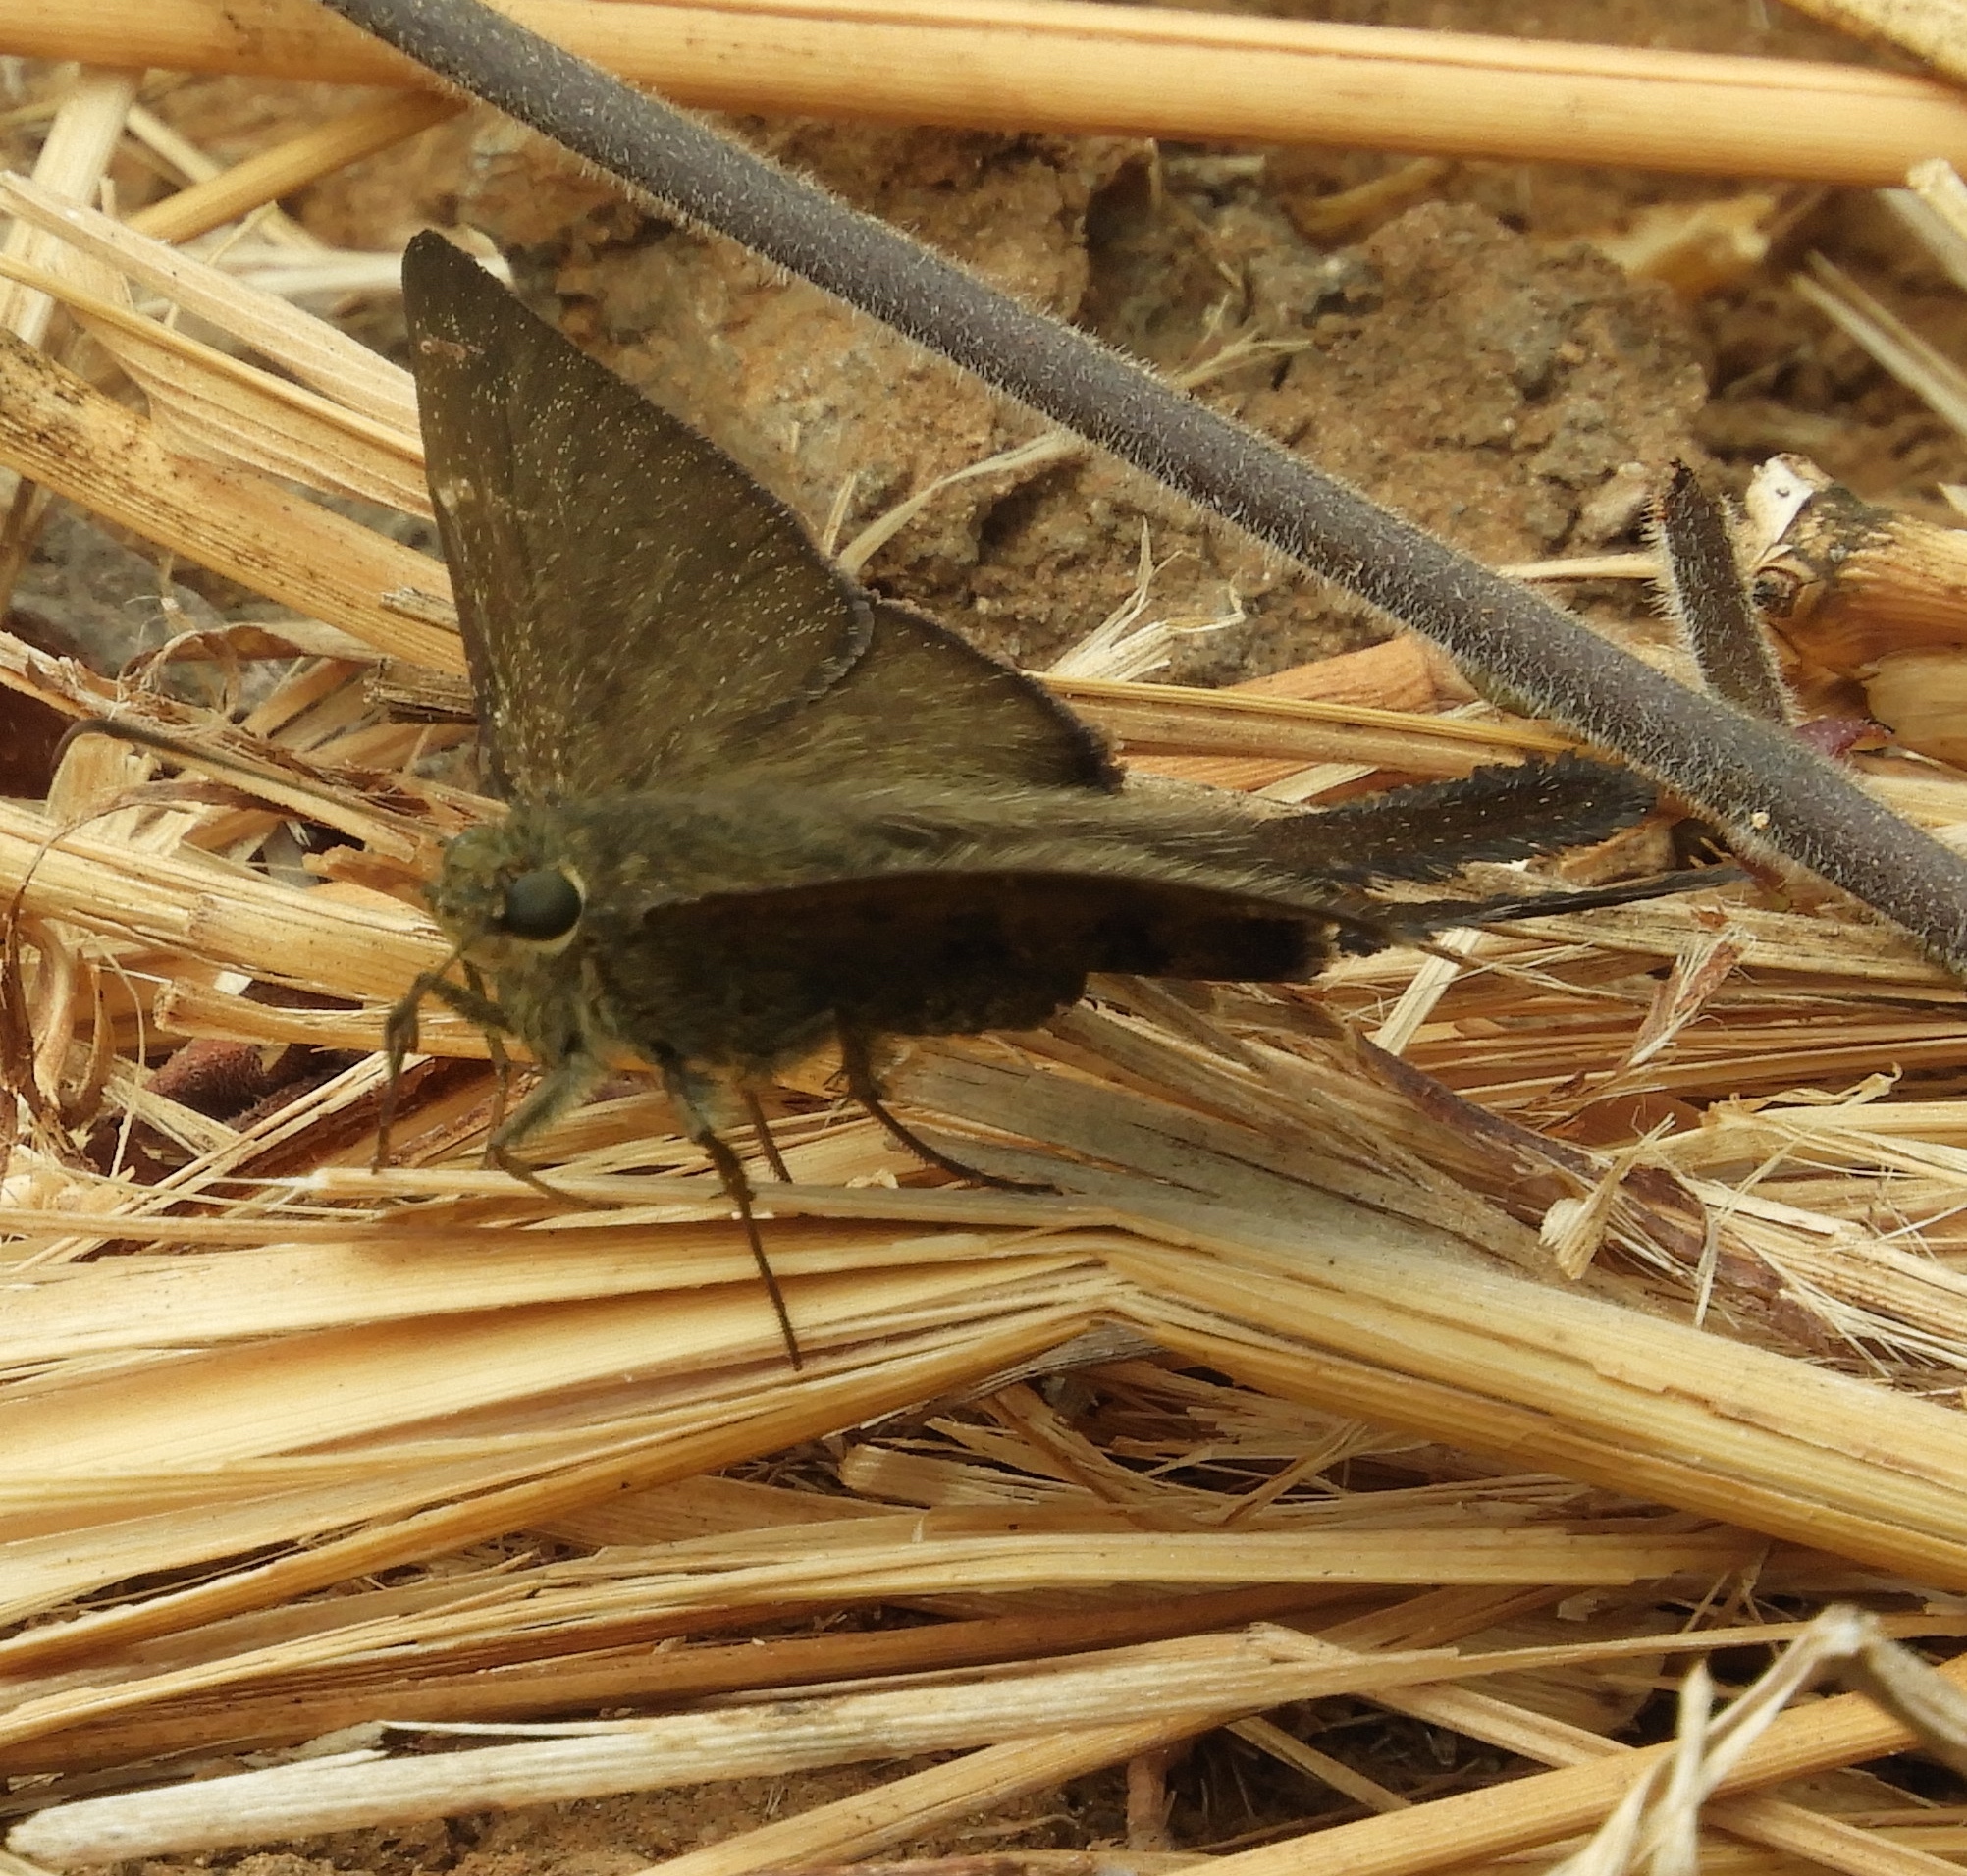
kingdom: Animalia
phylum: Arthropoda
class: Insecta
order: Lepidoptera
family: Hesperiidae
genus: Urbanus
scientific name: Urbanus procne
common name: Brown longtail
